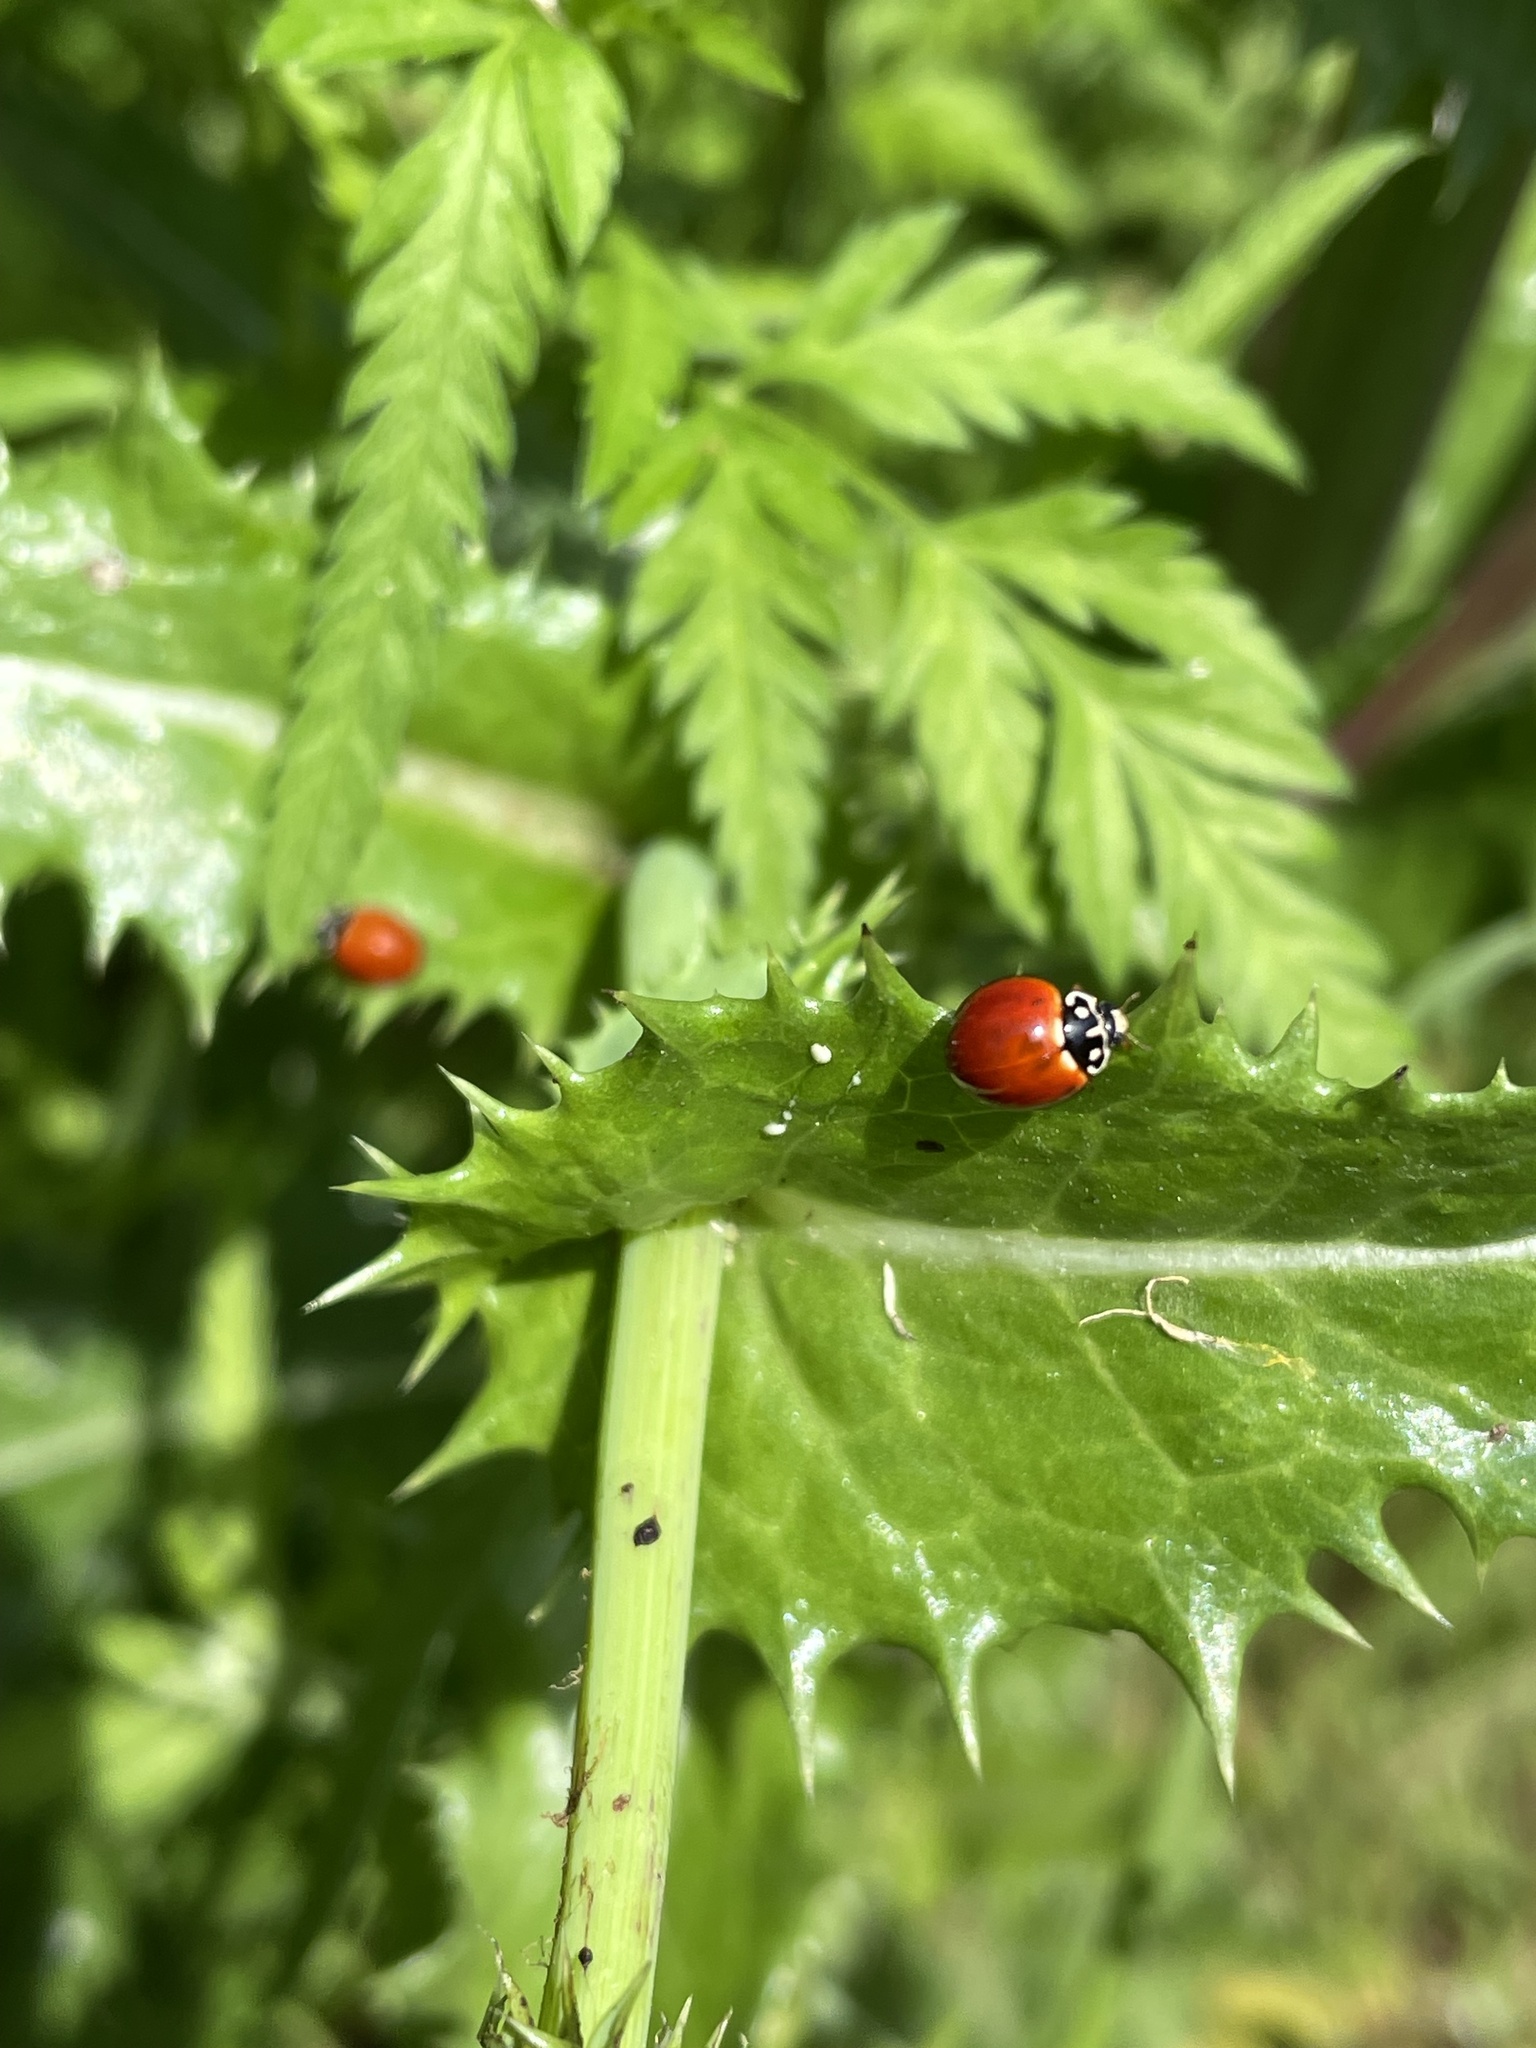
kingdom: Animalia
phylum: Arthropoda
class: Insecta
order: Coleoptera
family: Coccinellidae
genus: Cycloneda
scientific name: Cycloneda sanguinea
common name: Ladybird beetle
